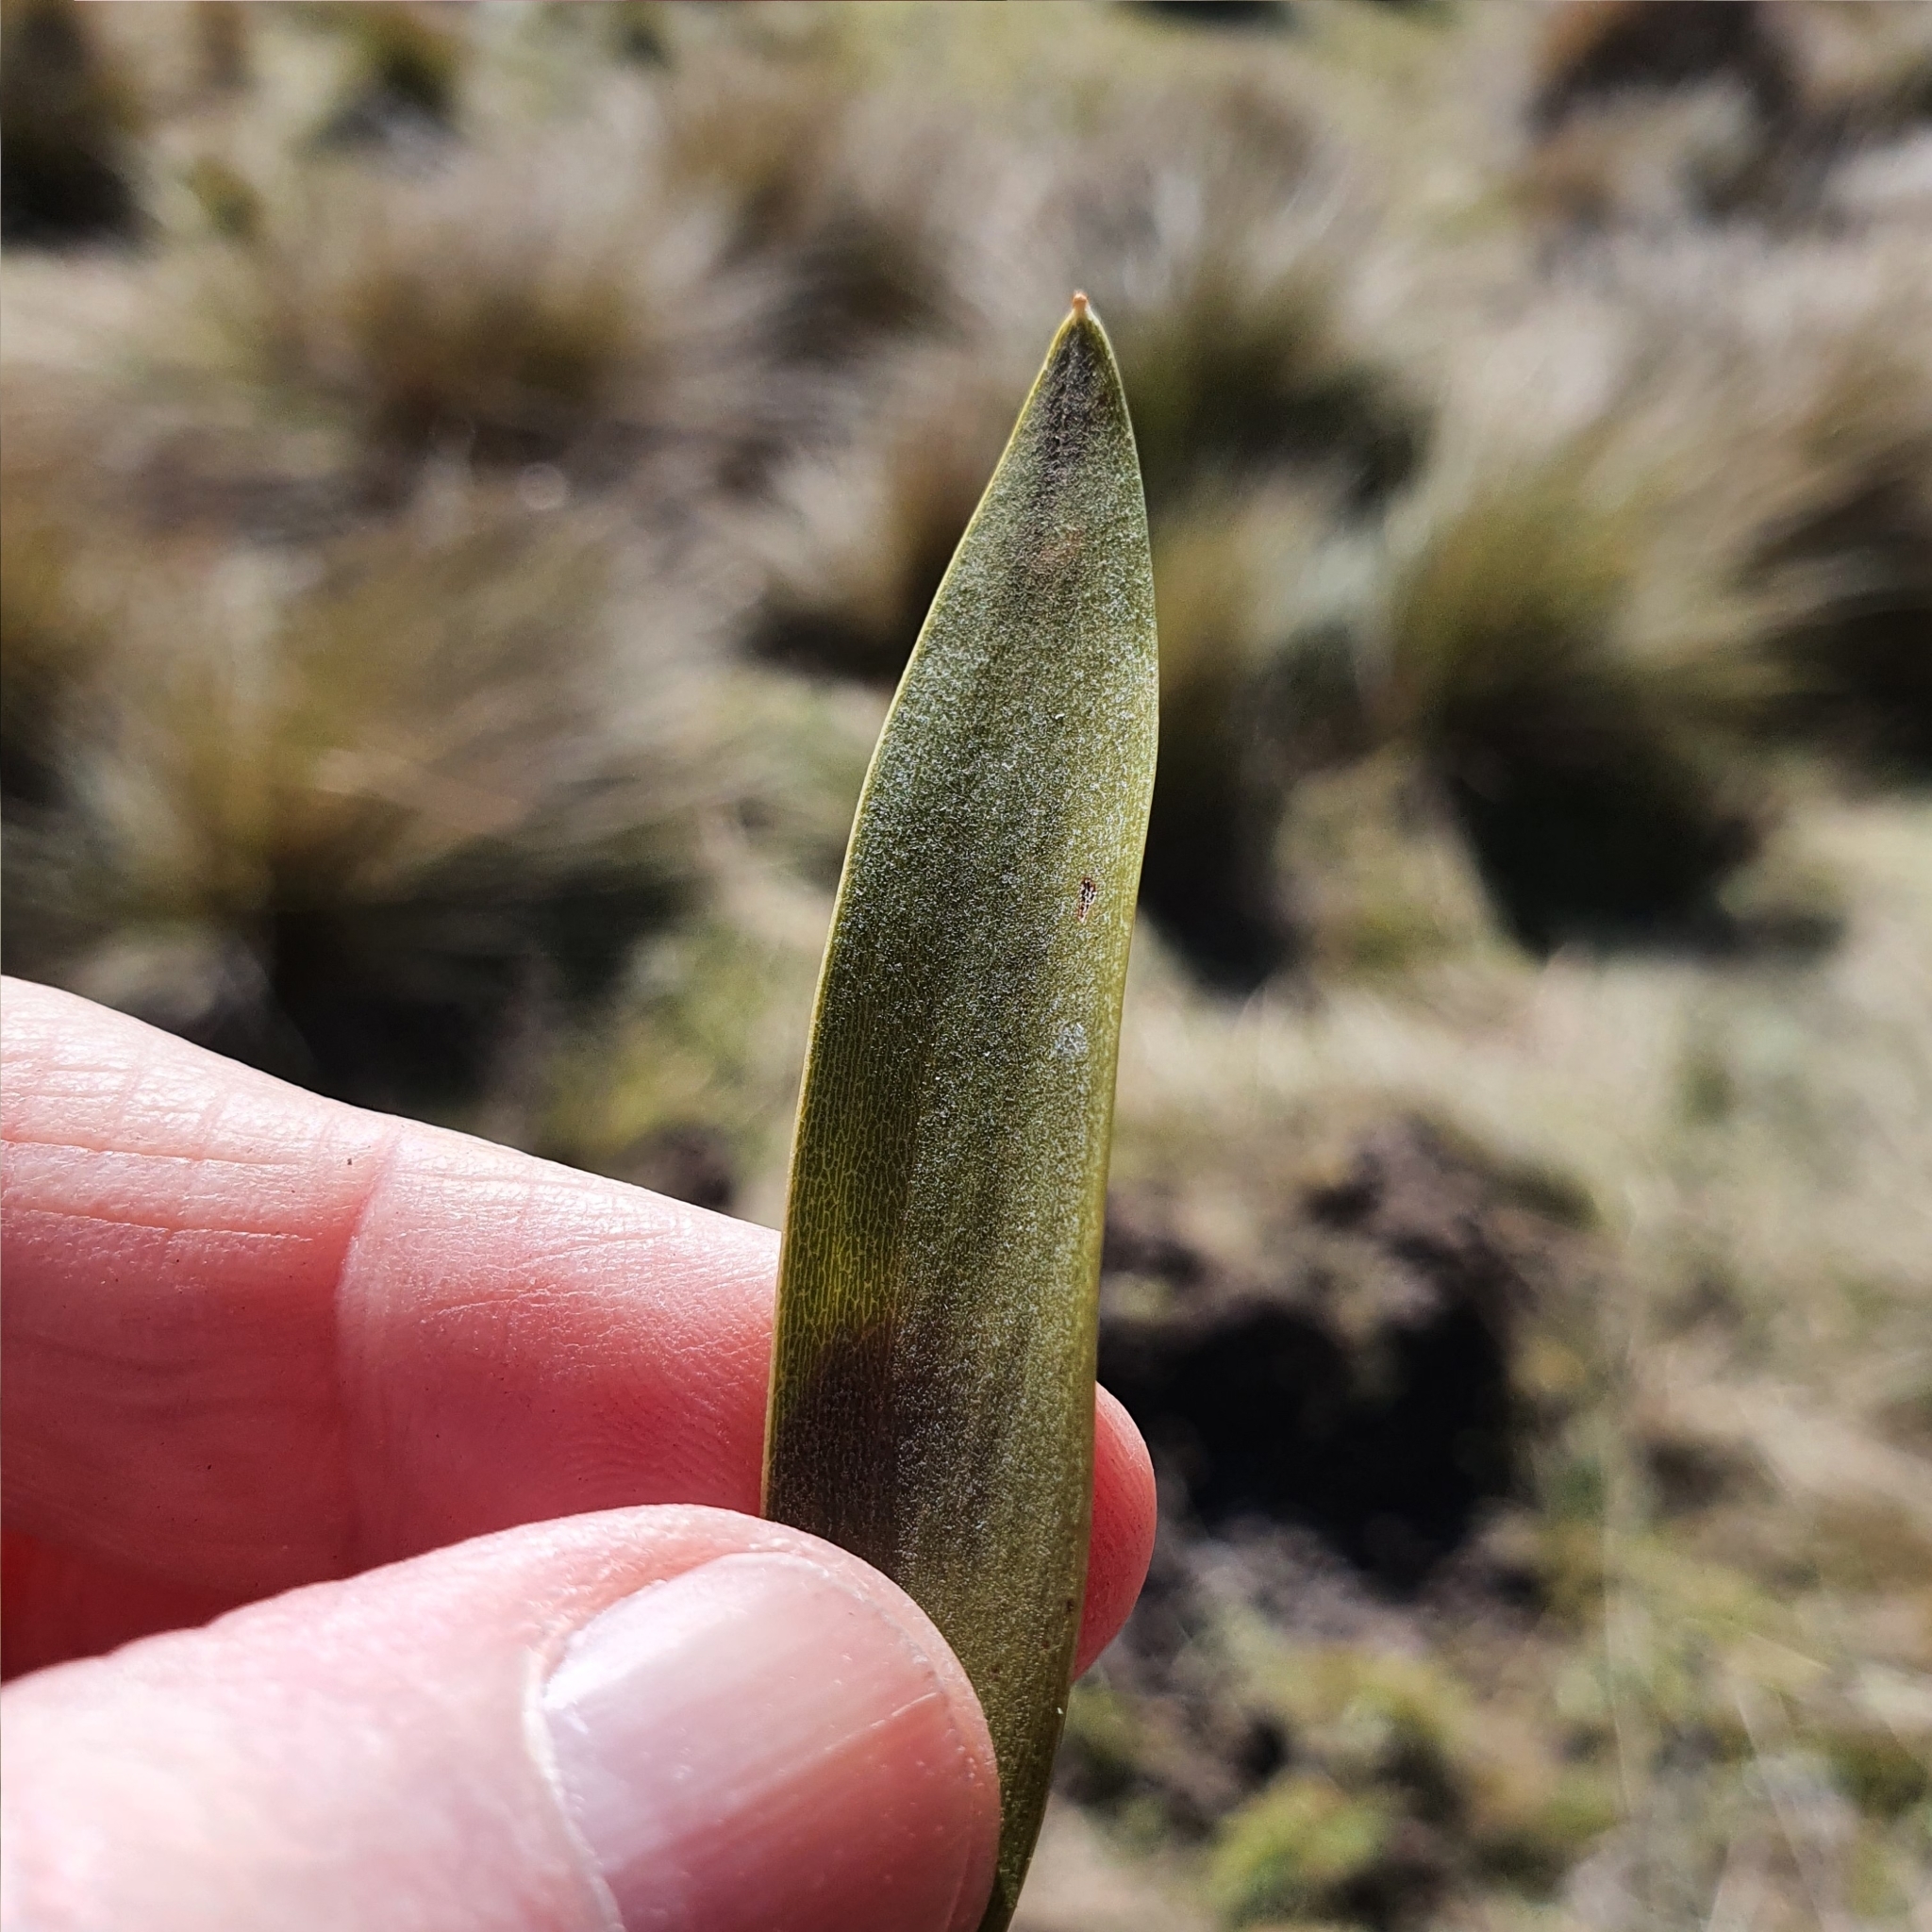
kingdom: Plantae
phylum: Tracheophyta
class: Magnoliopsida
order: Fabales
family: Fabaceae
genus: Acacia
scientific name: Acacia melanoxylon
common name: Blackwood
